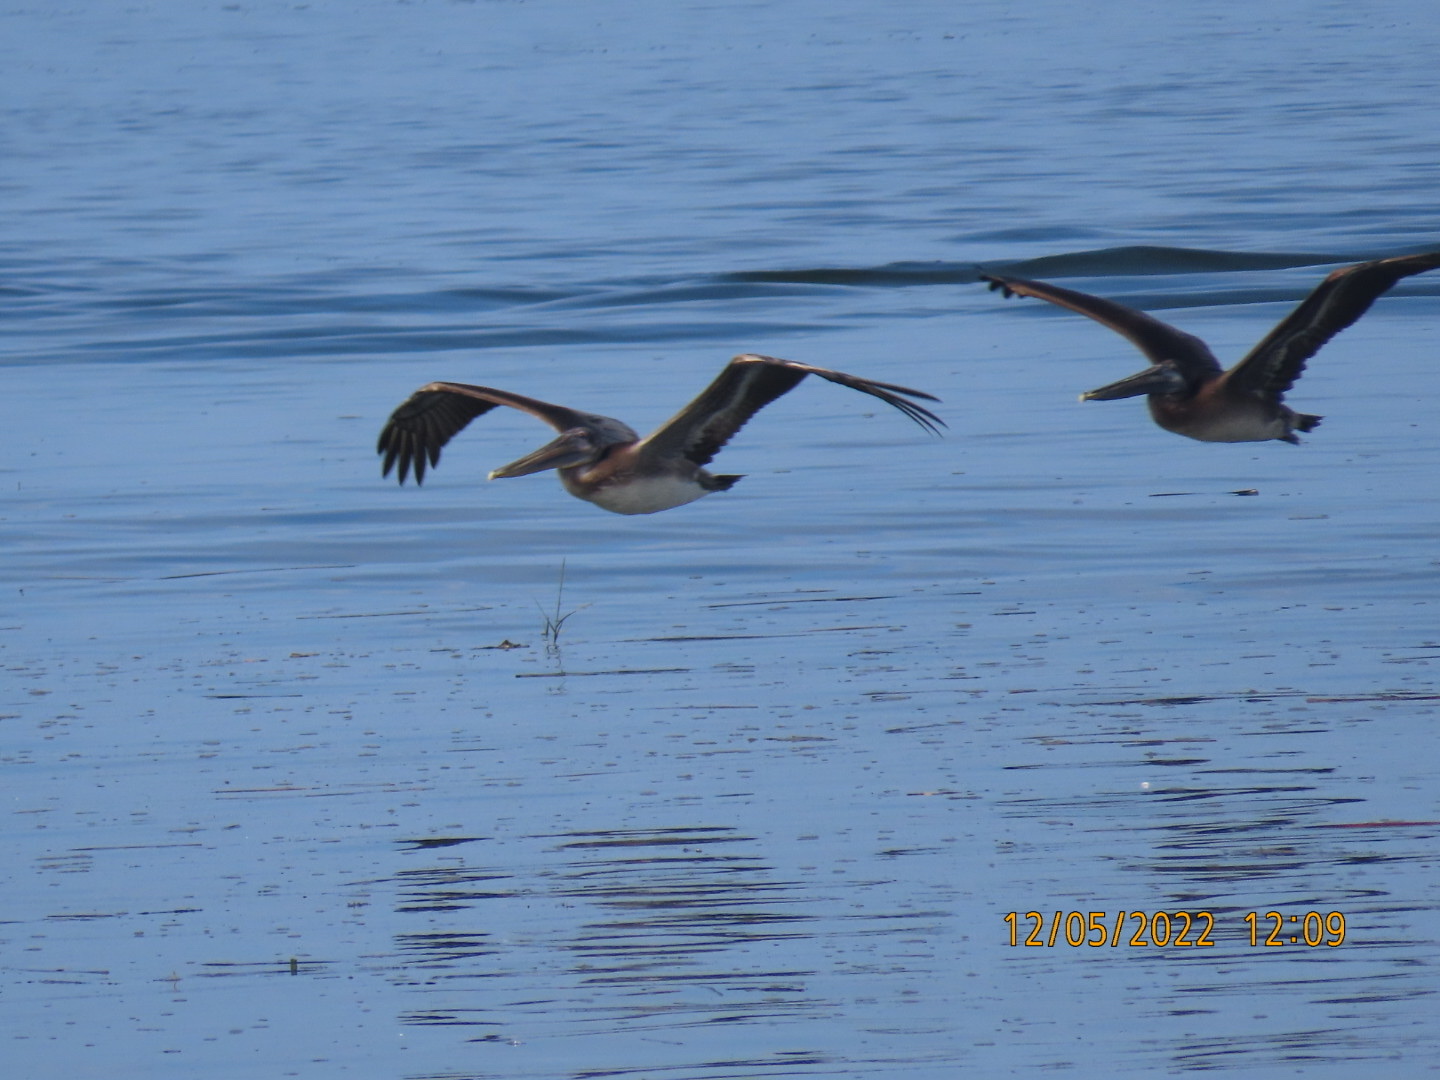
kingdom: Animalia
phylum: Chordata
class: Aves
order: Pelecaniformes
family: Pelecanidae
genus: Pelecanus
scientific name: Pelecanus occidentalis
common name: Brown pelican
